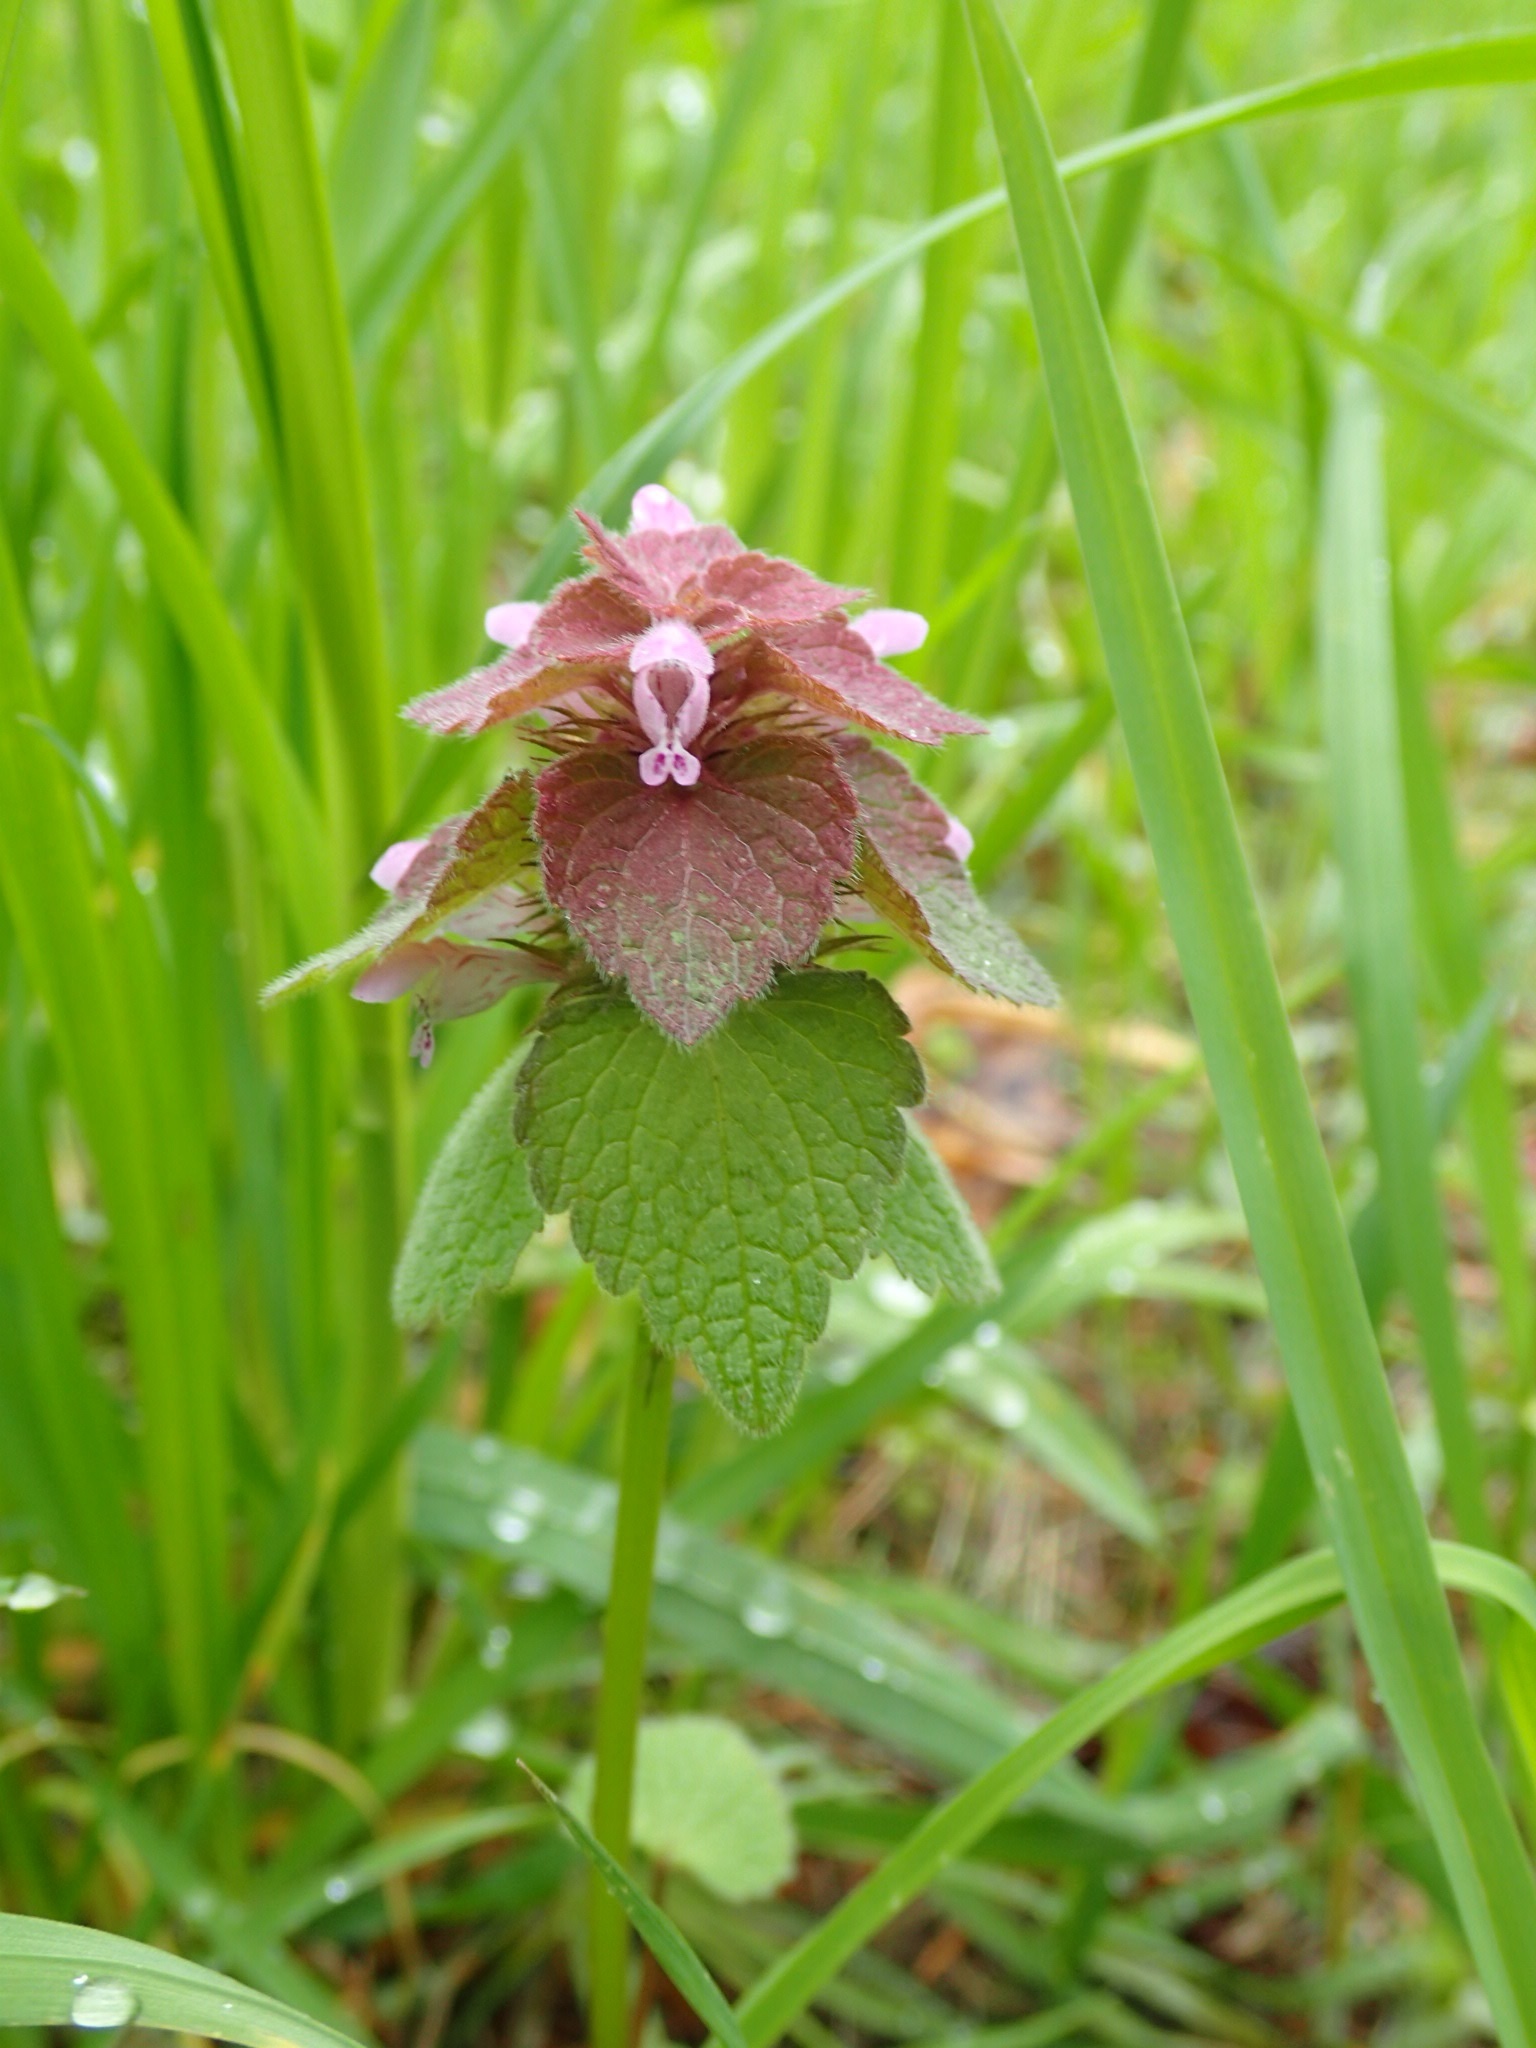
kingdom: Plantae
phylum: Tracheophyta
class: Magnoliopsida
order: Lamiales
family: Lamiaceae
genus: Lamium
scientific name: Lamium purpureum
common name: Red dead-nettle
